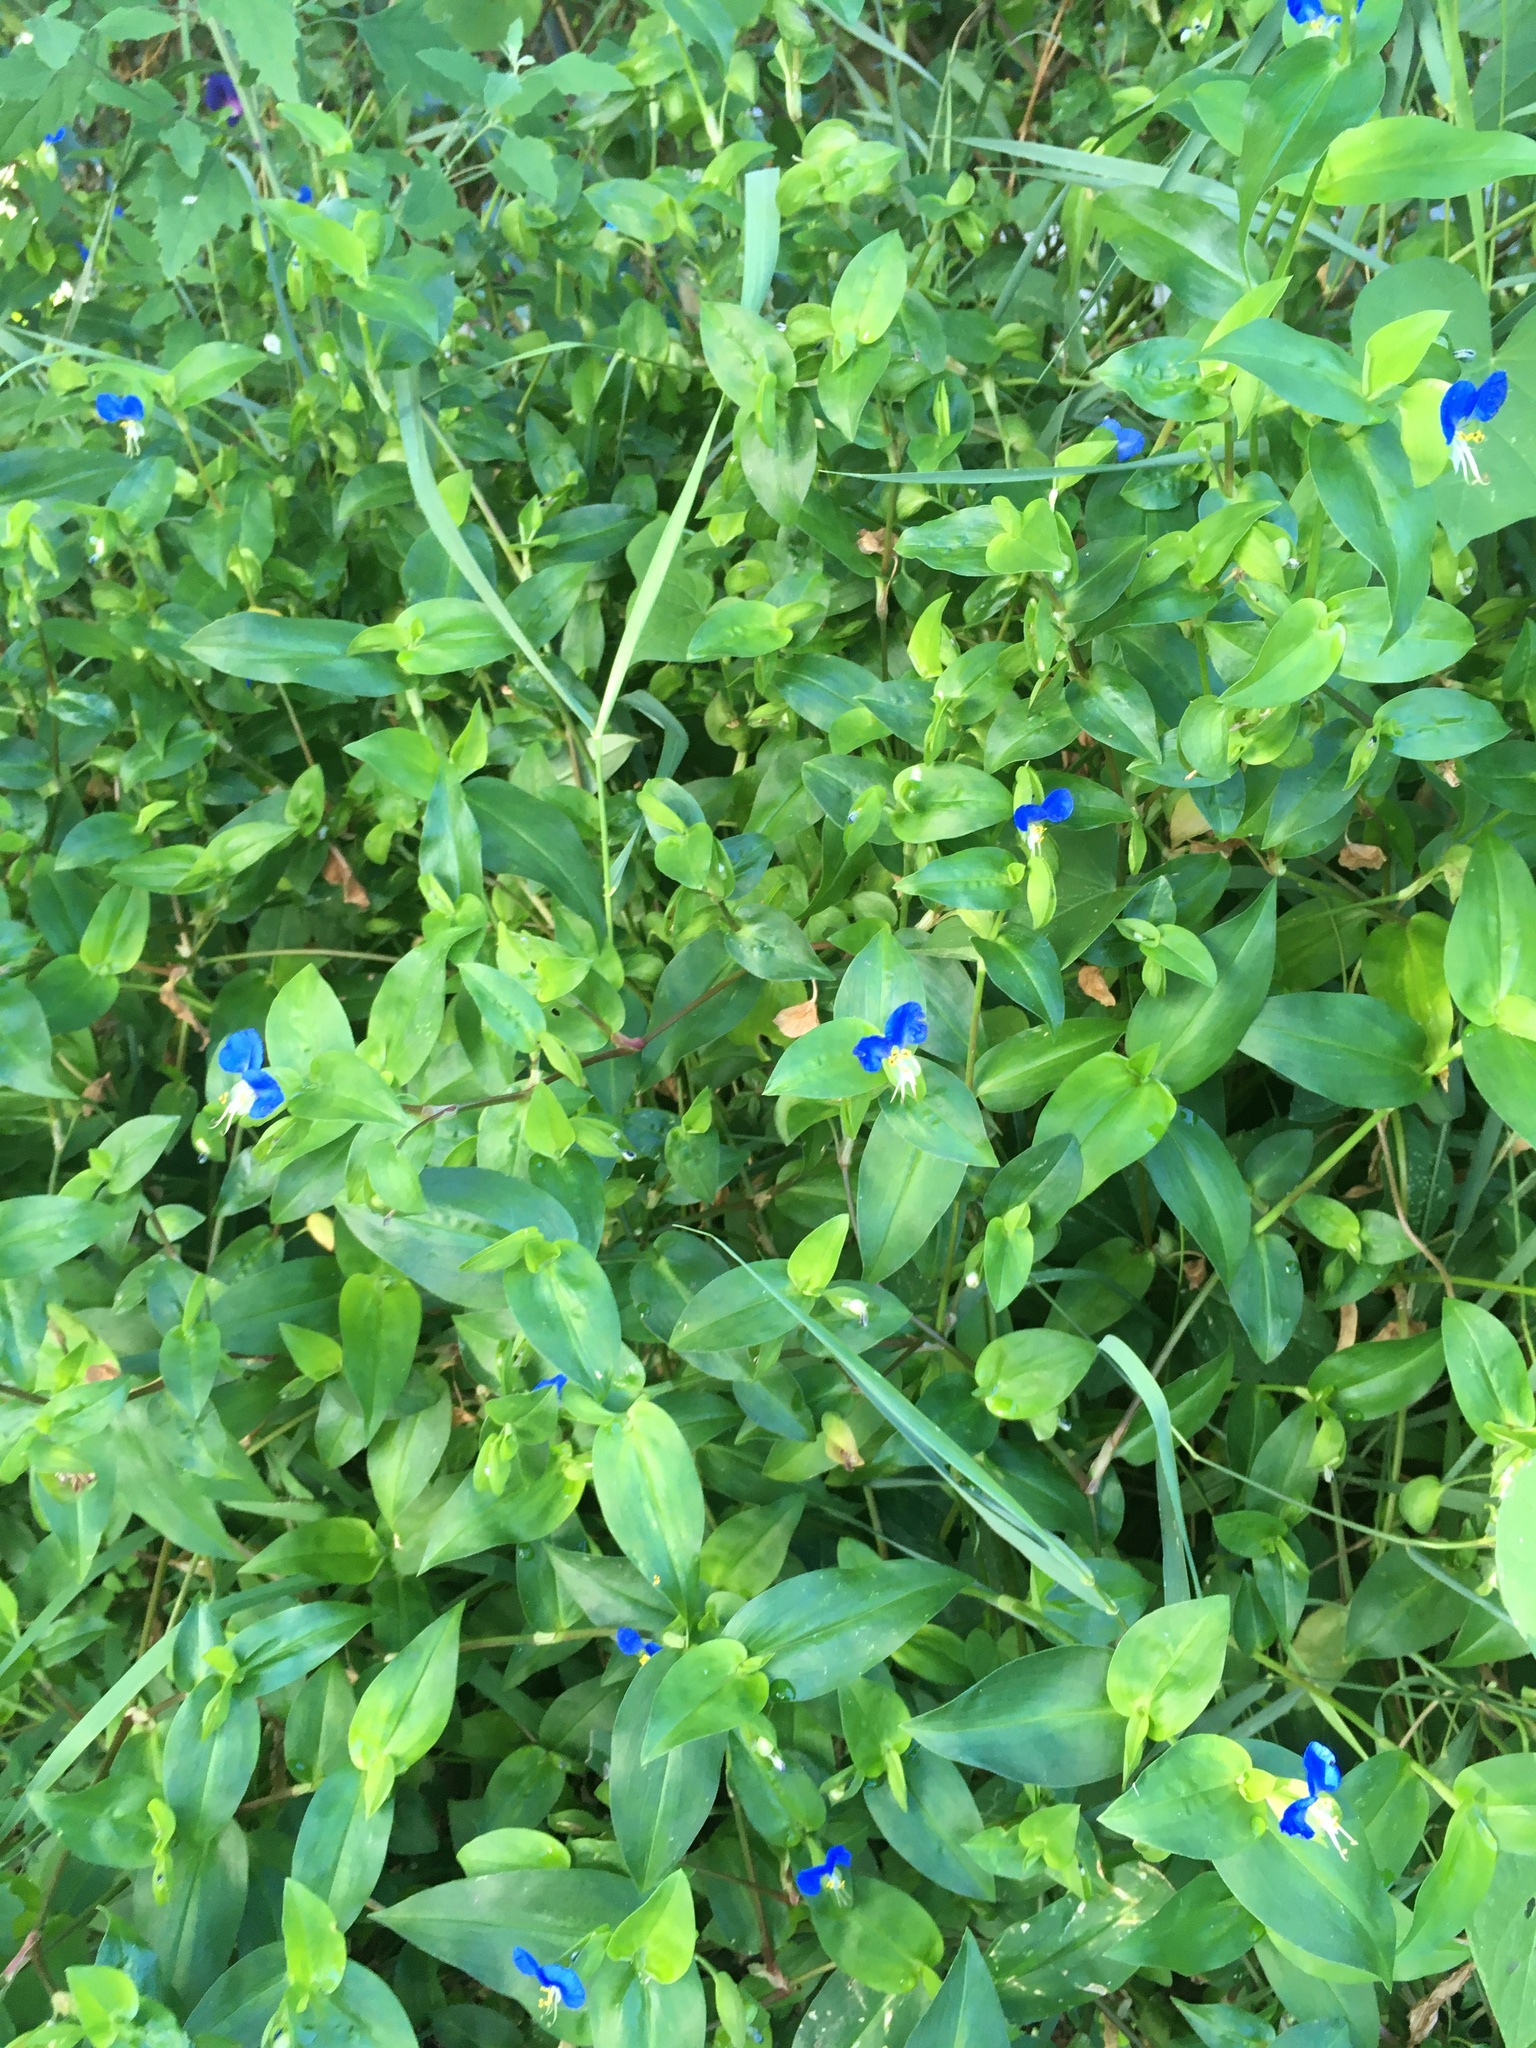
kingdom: Plantae
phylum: Tracheophyta
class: Liliopsida
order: Commelinales
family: Commelinaceae
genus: Commelina
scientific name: Commelina communis
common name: Asiatic dayflower
